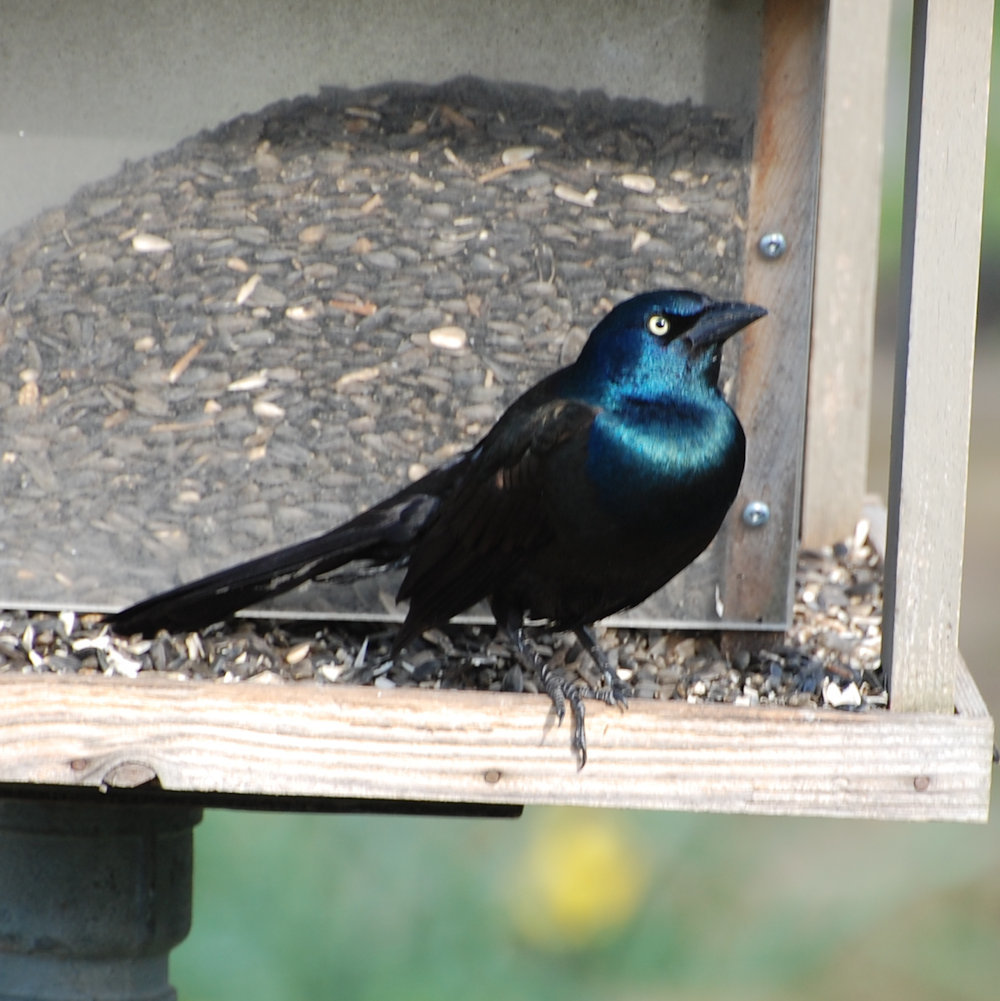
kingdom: Animalia
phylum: Chordata
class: Aves
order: Passeriformes
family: Icteridae
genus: Quiscalus
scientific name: Quiscalus quiscula
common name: Common grackle
